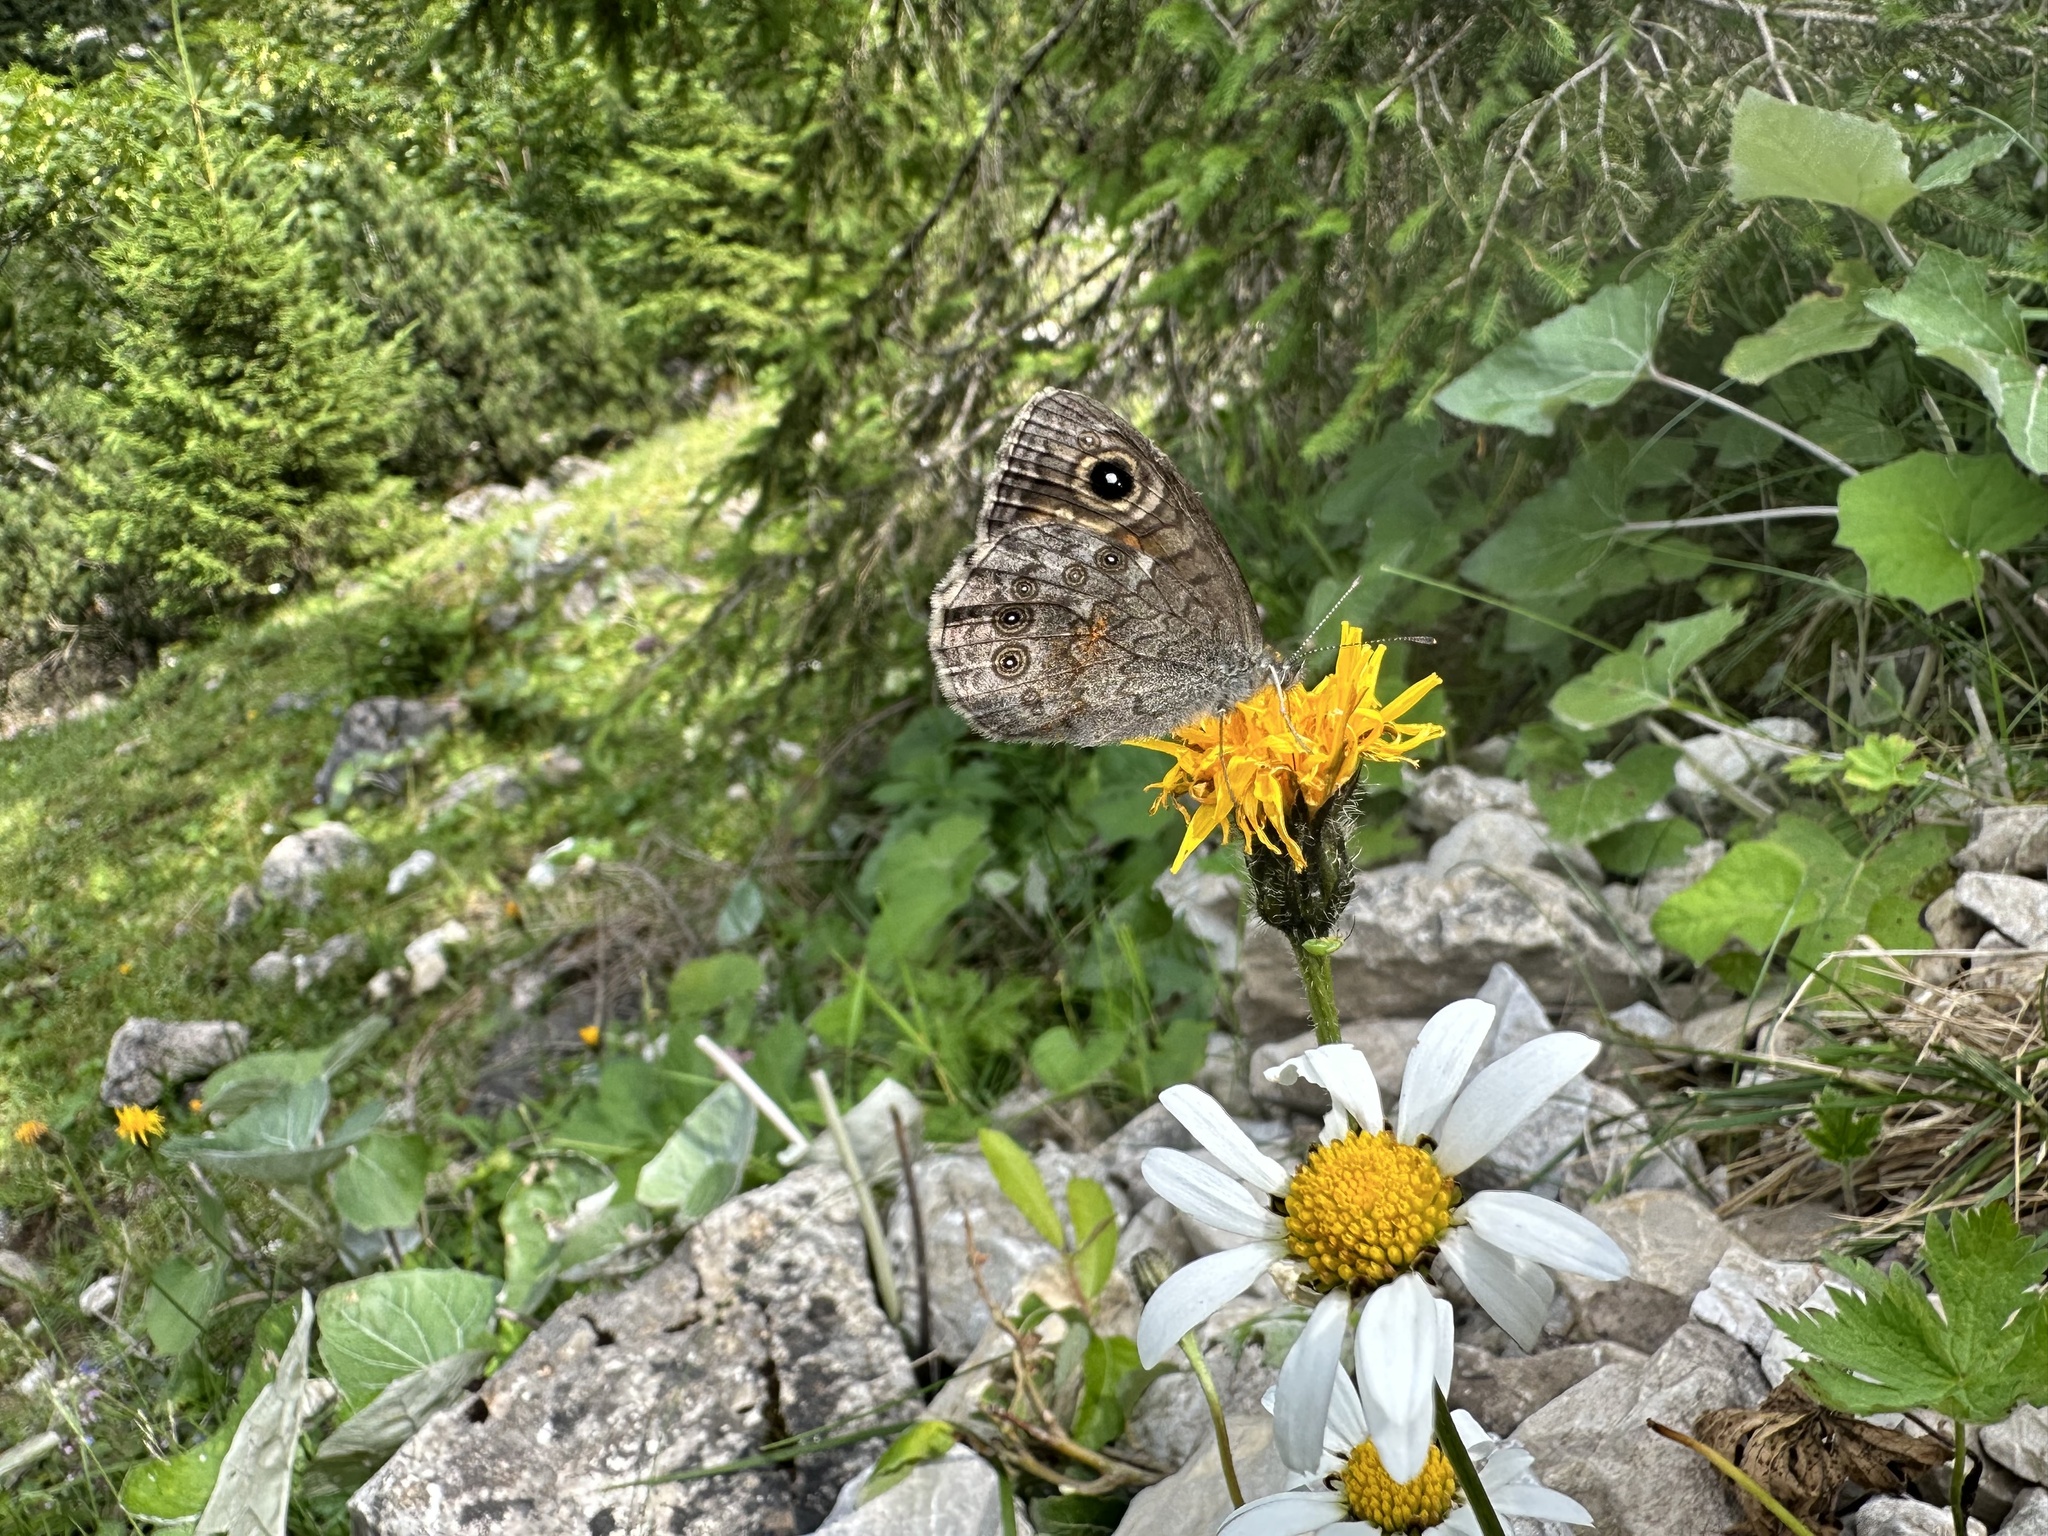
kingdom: Animalia
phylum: Arthropoda
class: Insecta
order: Lepidoptera
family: Nymphalidae
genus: Pararge
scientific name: Pararge Lasiommata maera
